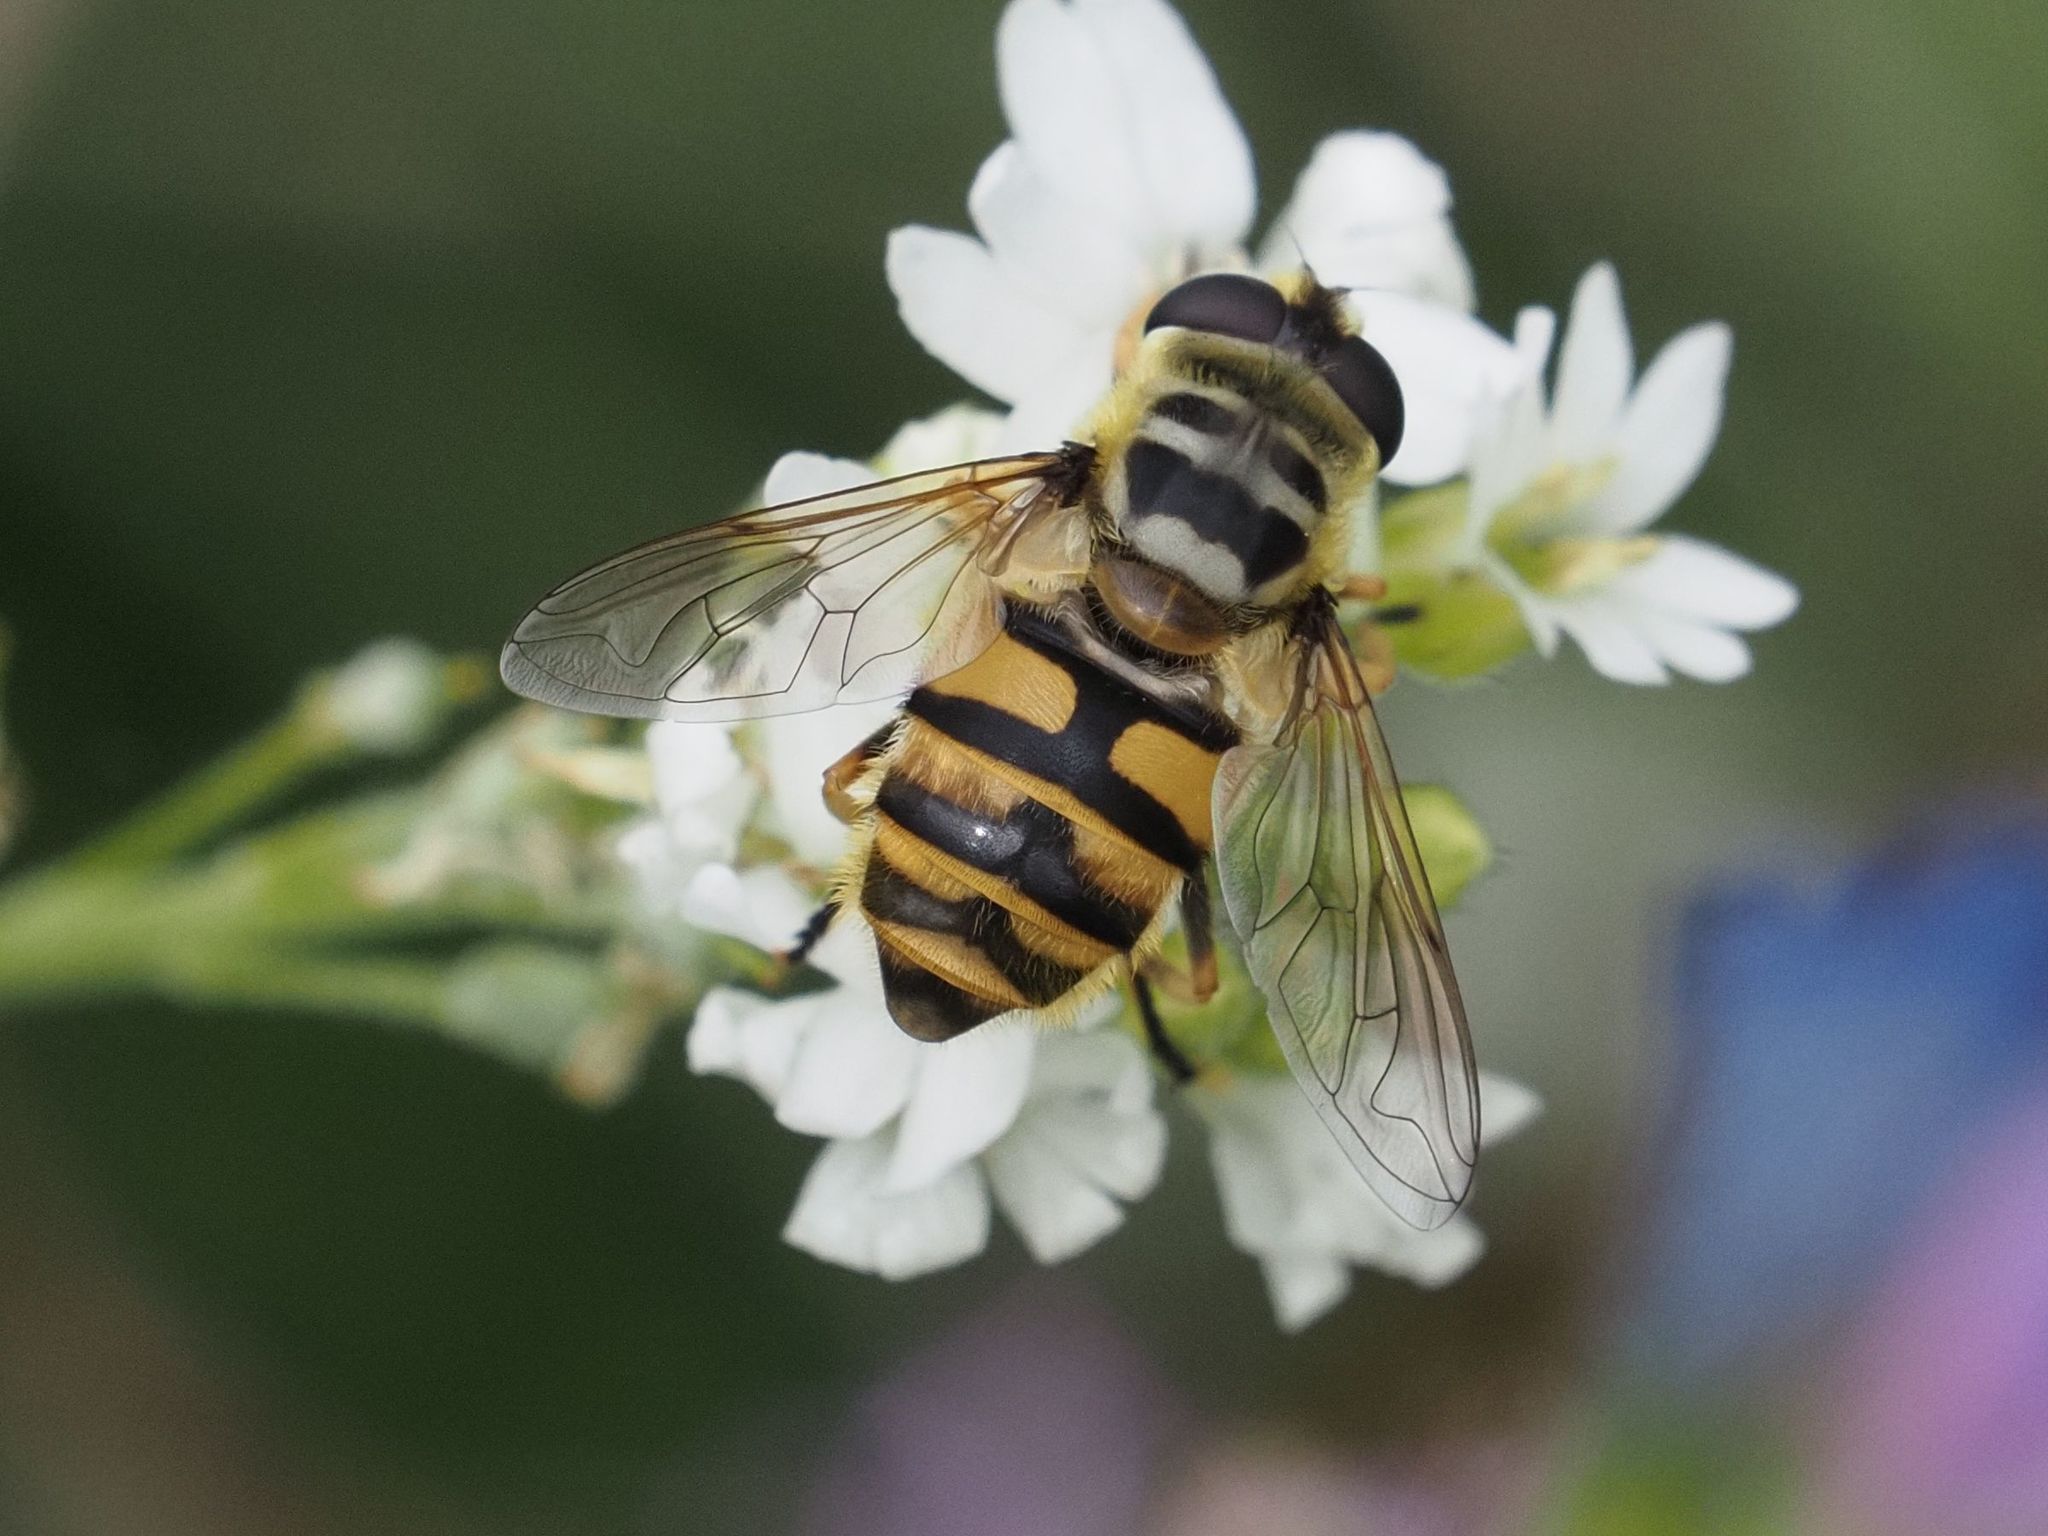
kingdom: Animalia
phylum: Arthropoda
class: Insecta
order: Diptera
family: Syrphidae
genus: Myathropa
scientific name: Myathropa florea
